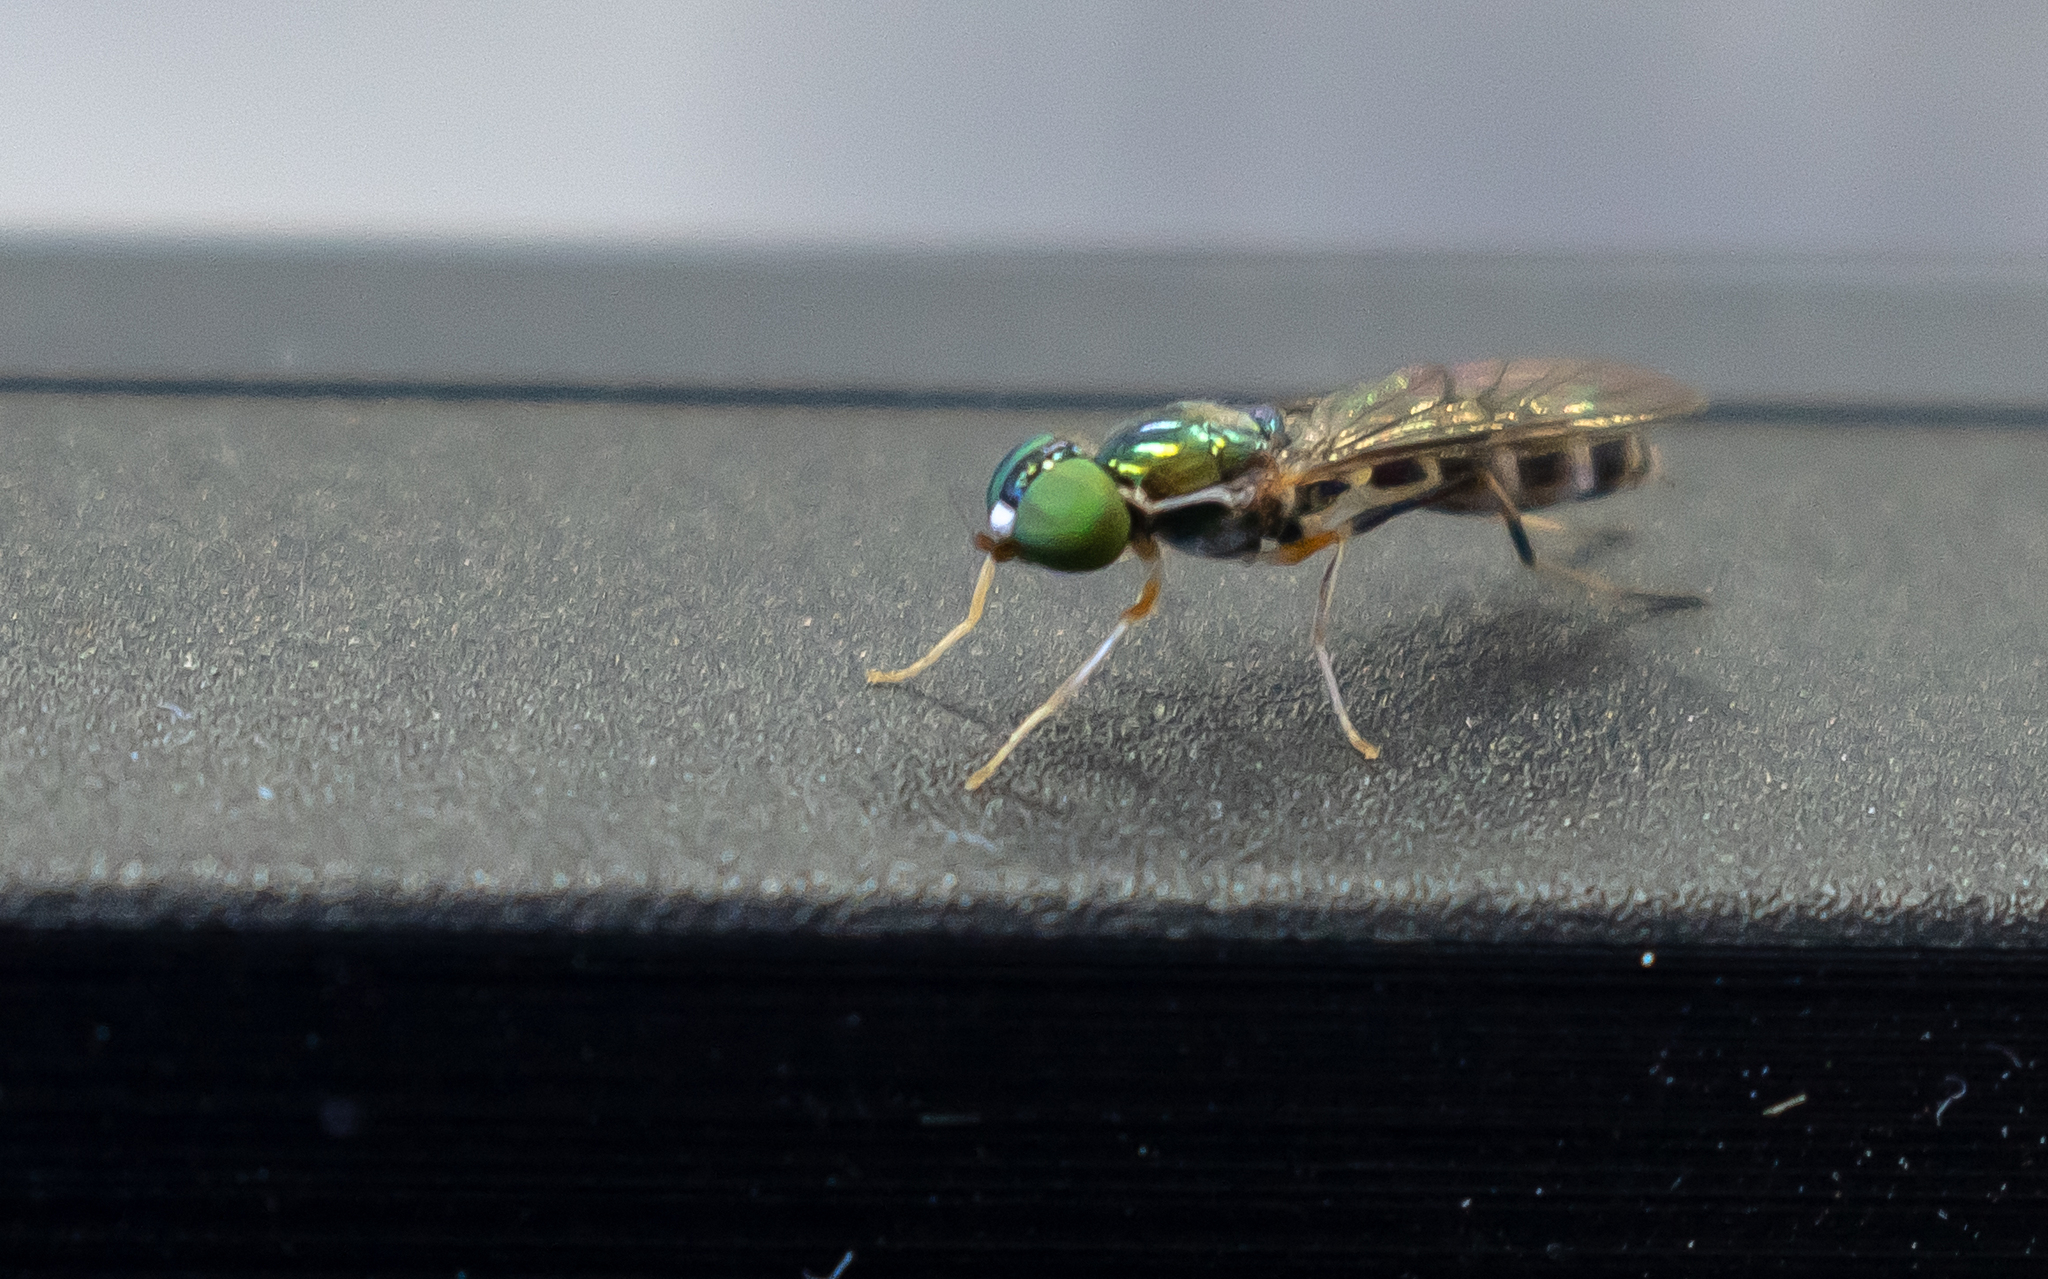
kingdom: Animalia
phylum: Arthropoda
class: Insecta
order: Diptera
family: Stratiomyidae
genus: Sargus
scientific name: Sargus fasciatus
